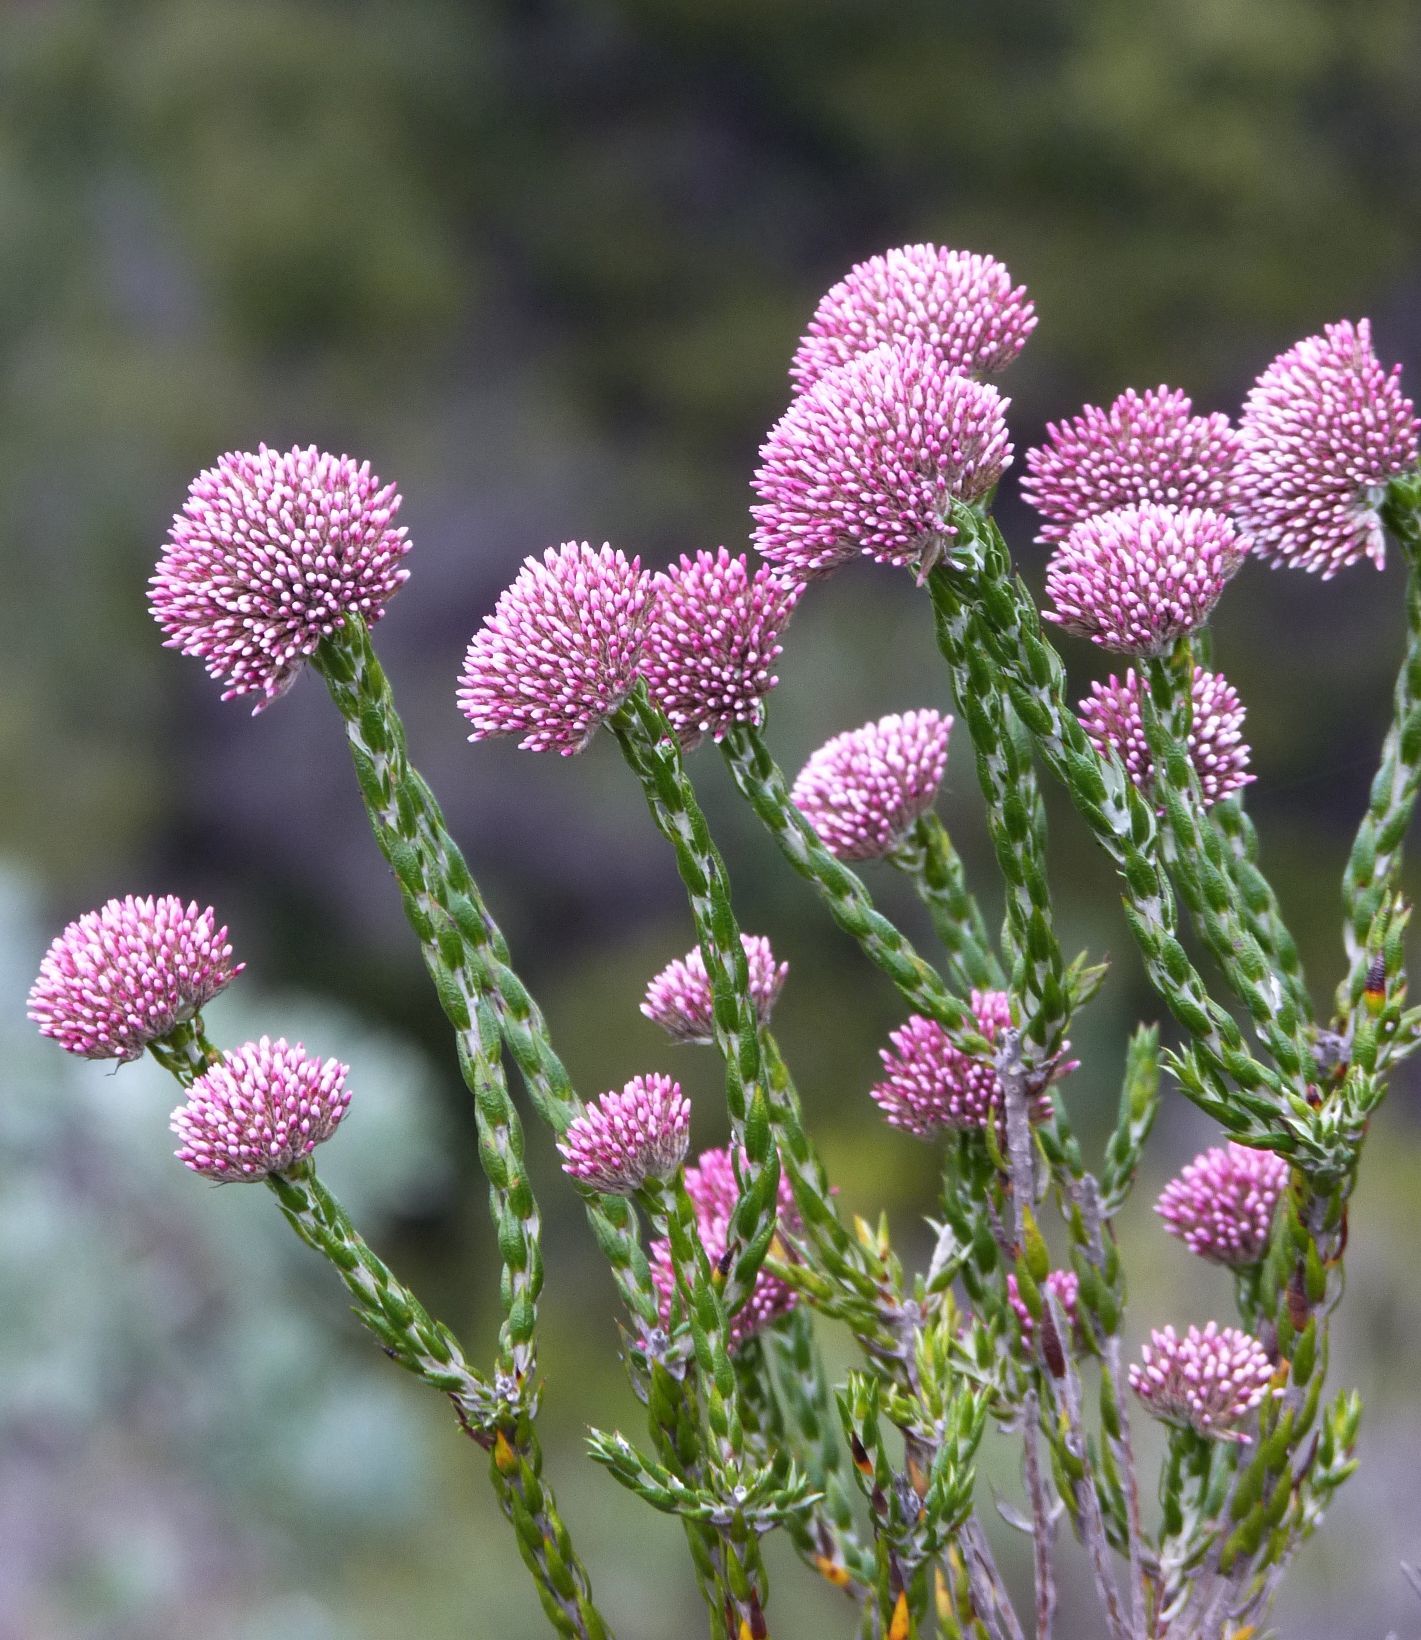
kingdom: Plantae
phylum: Tracheophyta
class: Magnoliopsida
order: Asterales
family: Asteraceae
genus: Metalasia
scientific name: Metalasia pulcherrima
